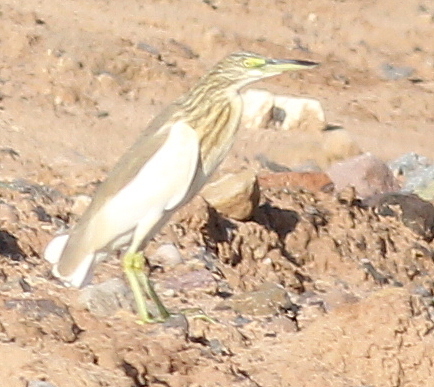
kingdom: Animalia
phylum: Chordata
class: Aves
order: Pelecaniformes
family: Ardeidae
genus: Ardeola
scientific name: Ardeola ralloides
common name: Squacco heron
